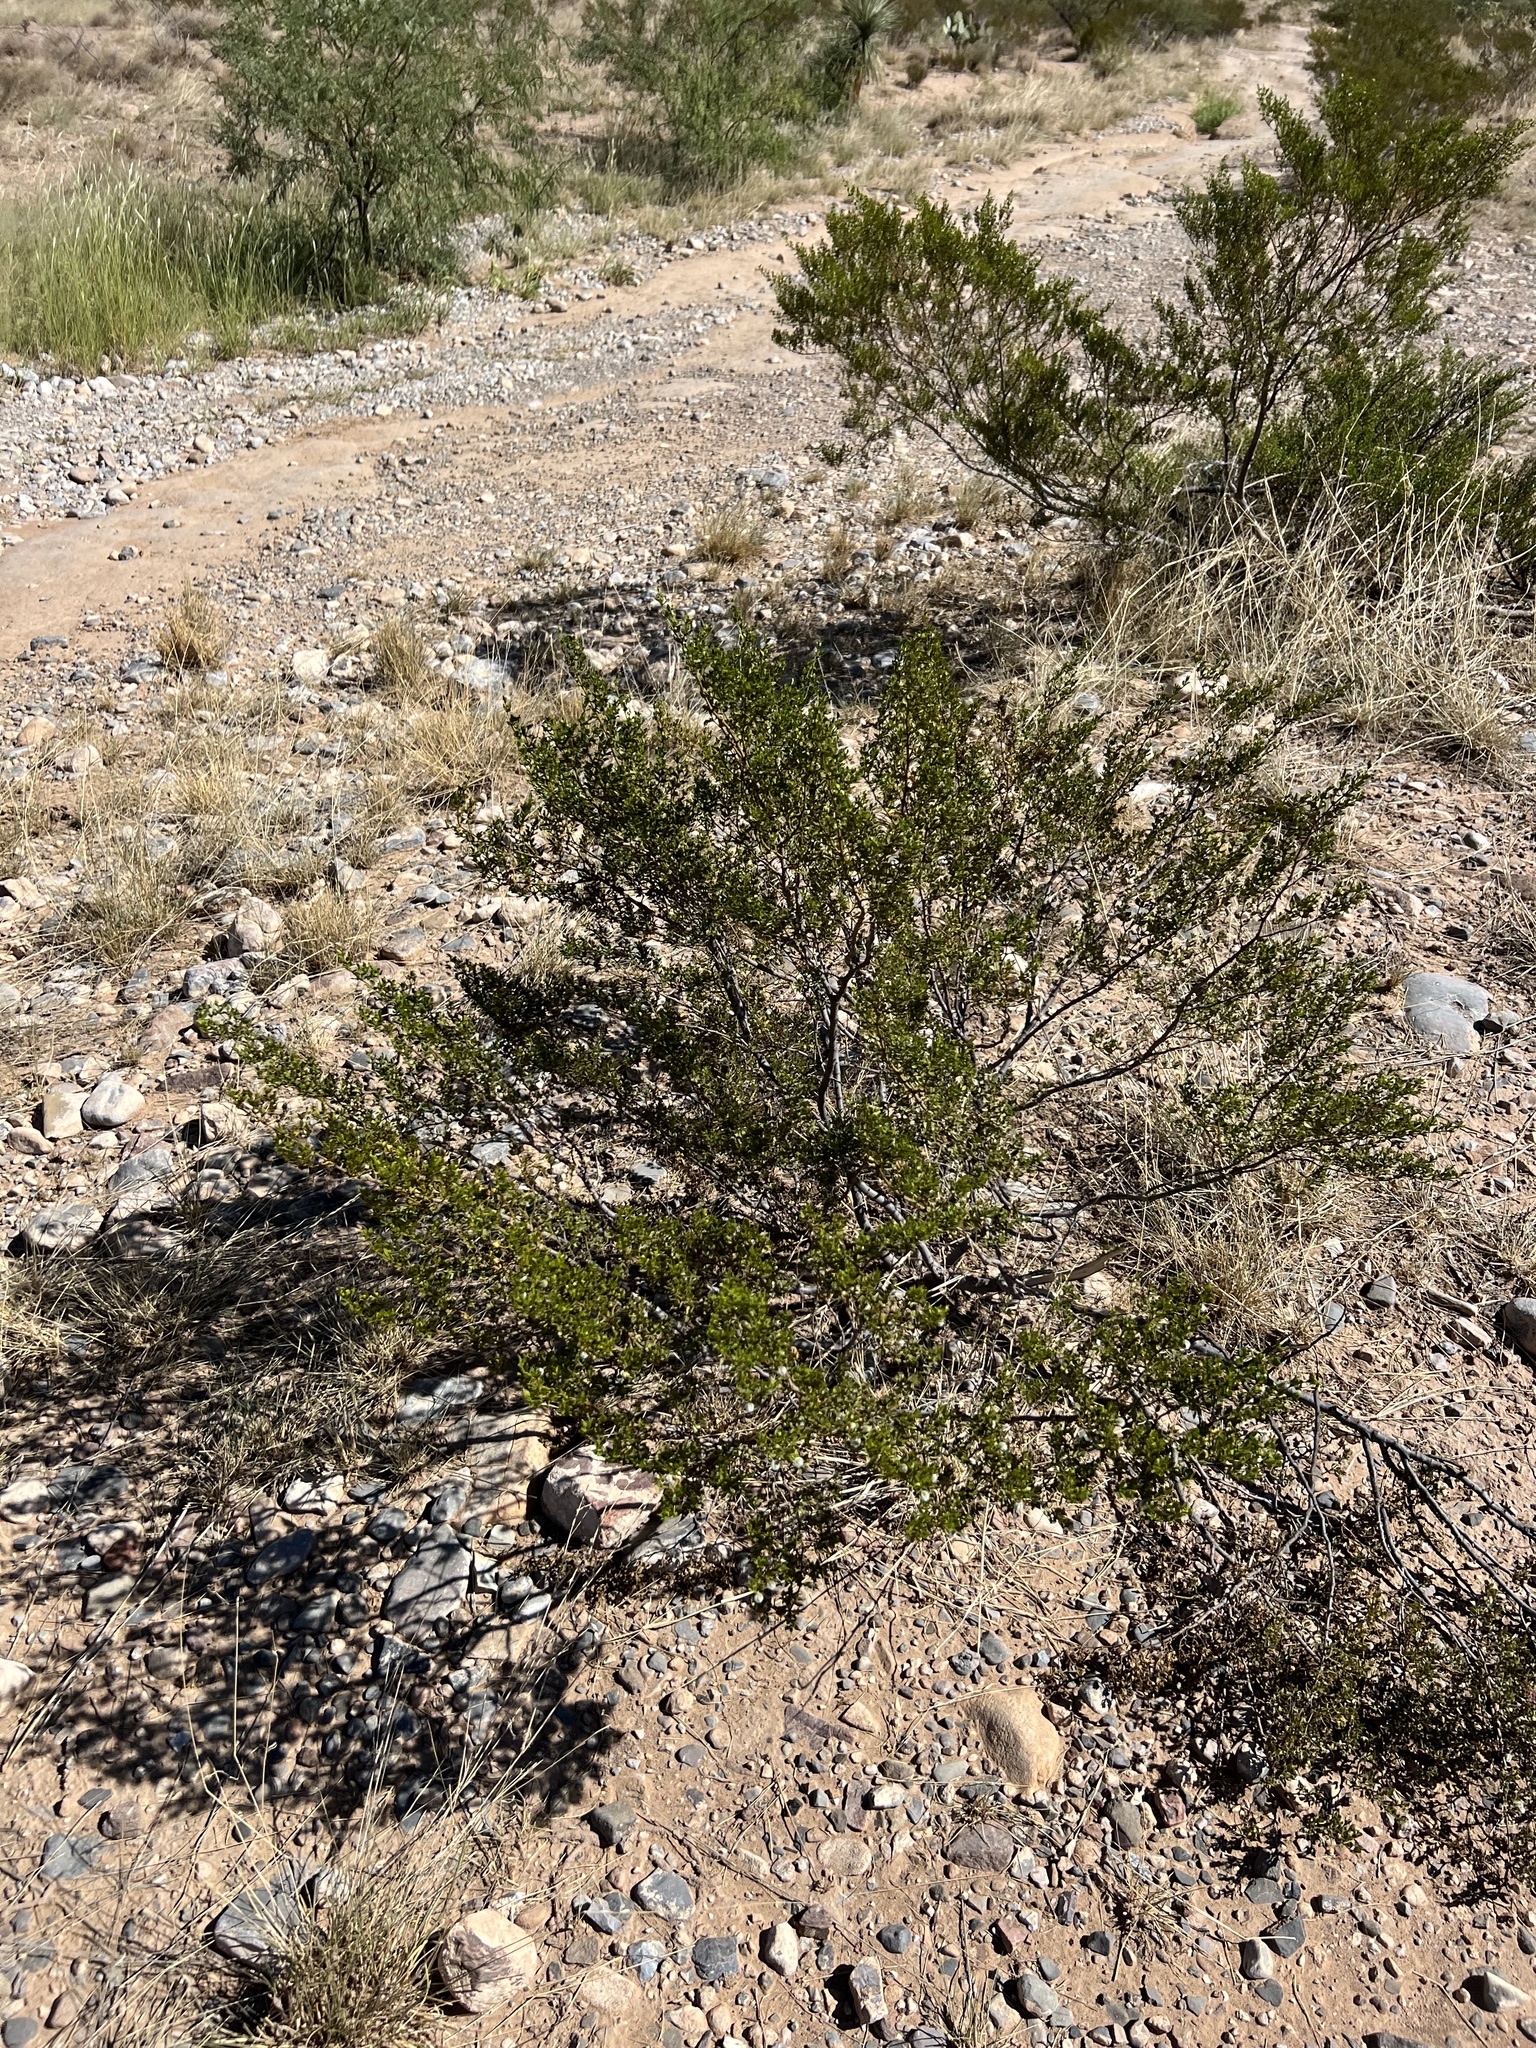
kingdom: Plantae
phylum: Tracheophyta
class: Magnoliopsida
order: Zygophyllales
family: Zygophyllaceae
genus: Larrea
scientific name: Larrea tridentata
